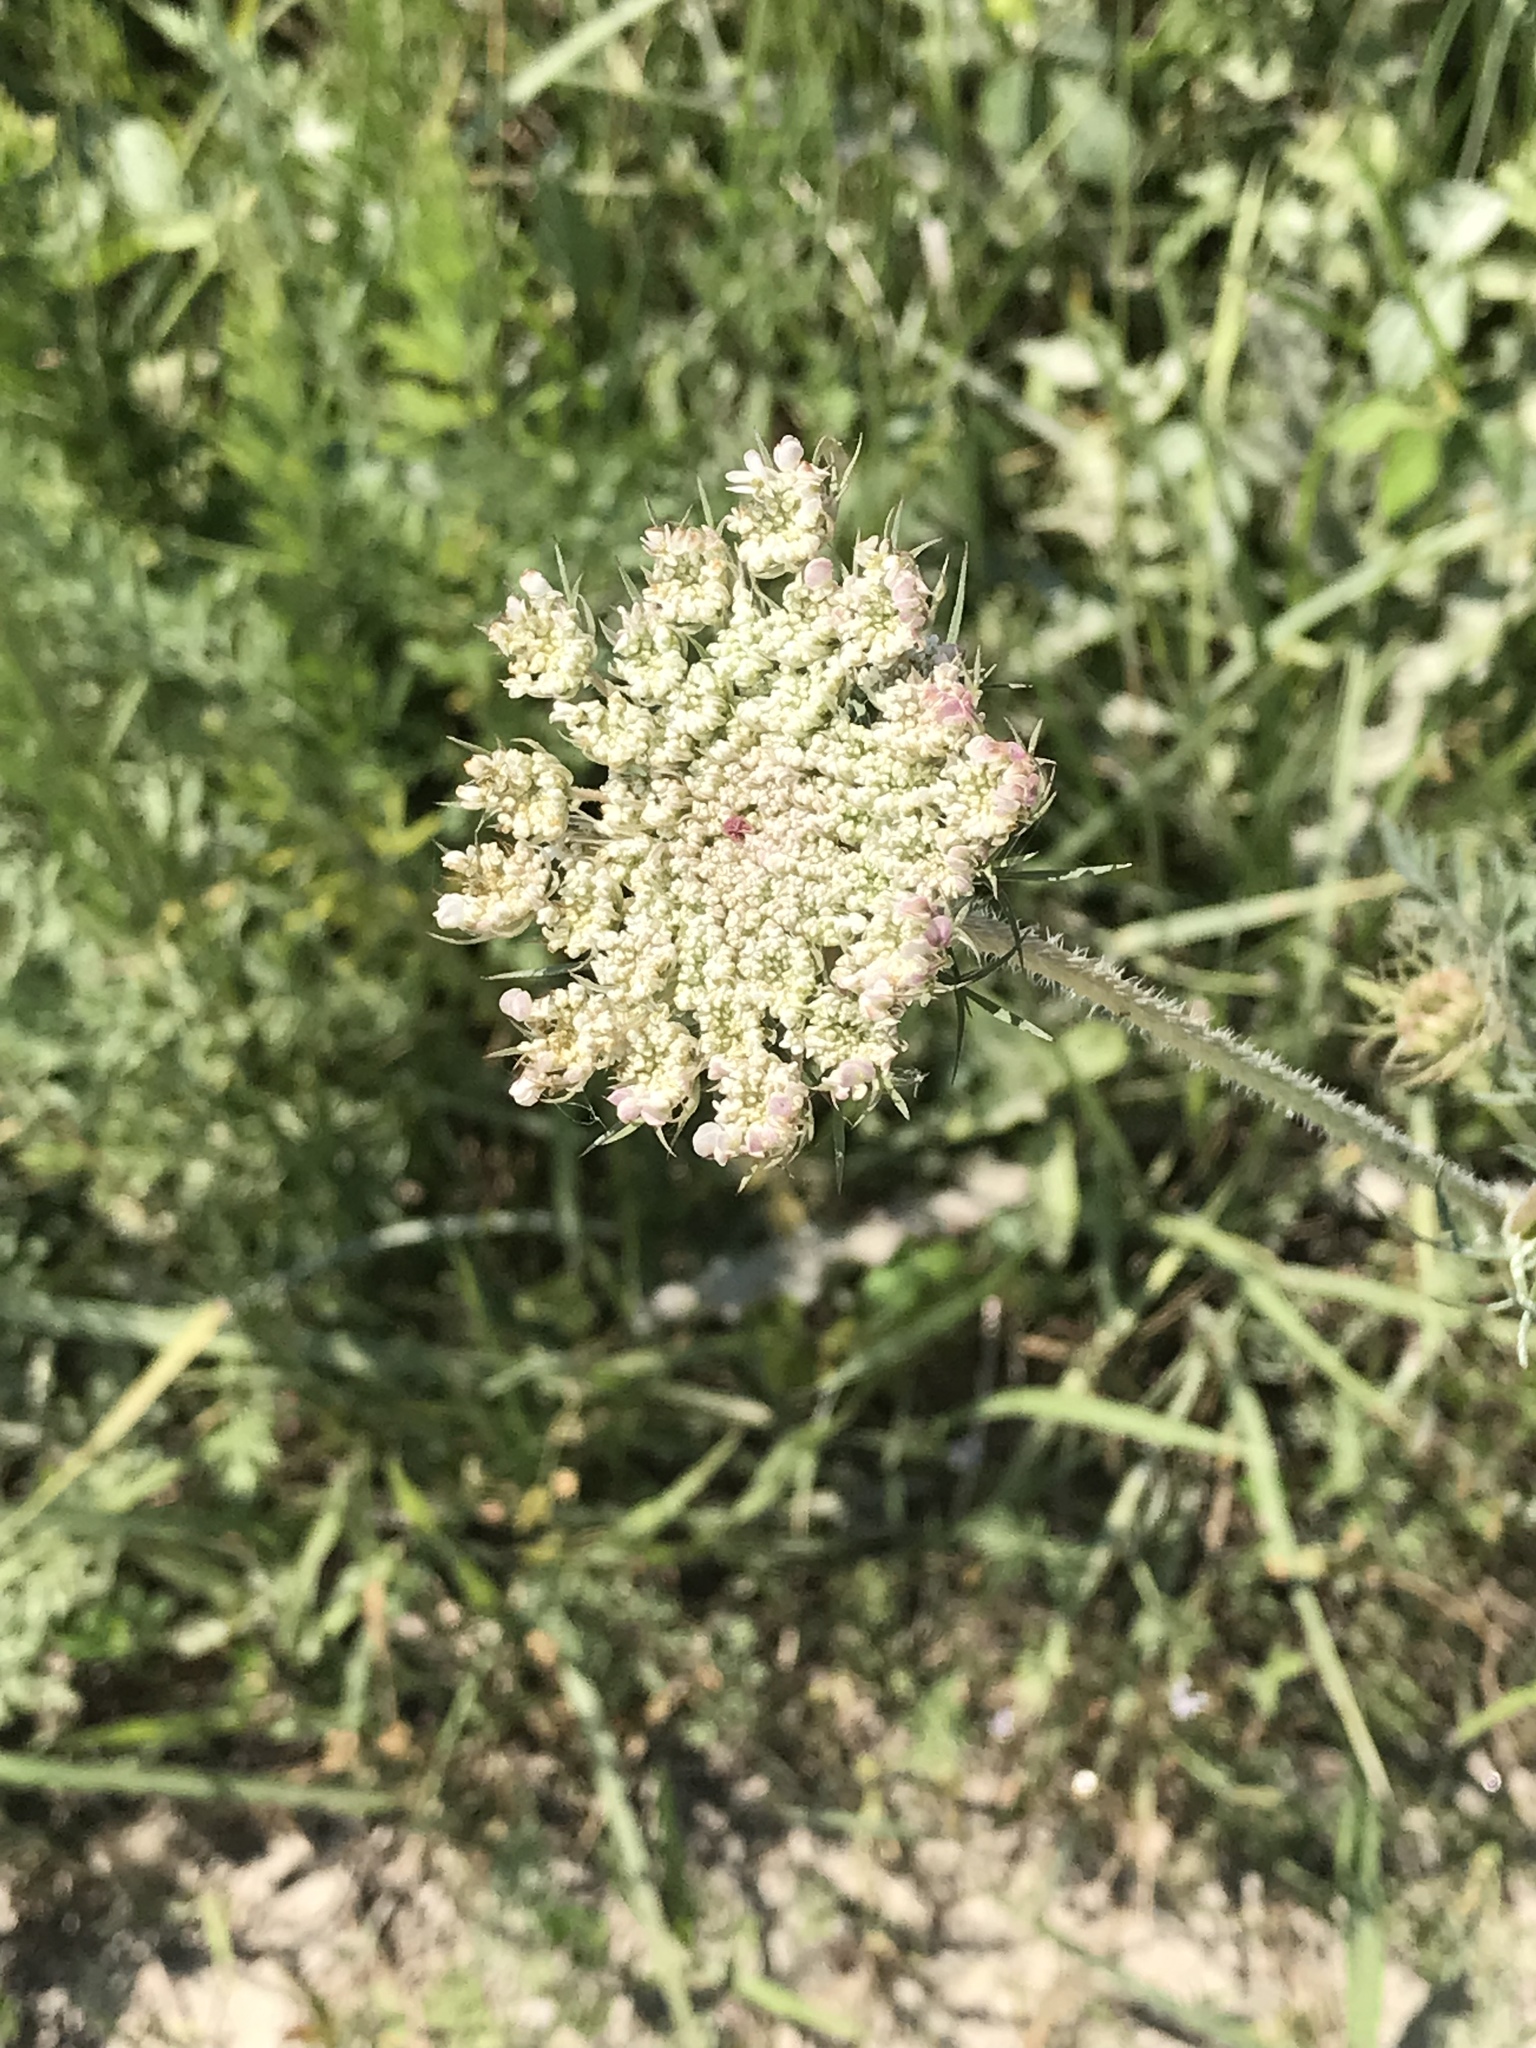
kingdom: Plantae
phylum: Tracheophyta
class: Magnoliopsida
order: Apiales
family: Apiaceae
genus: Daucus
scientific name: Daucus carota
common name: Wild carrot
